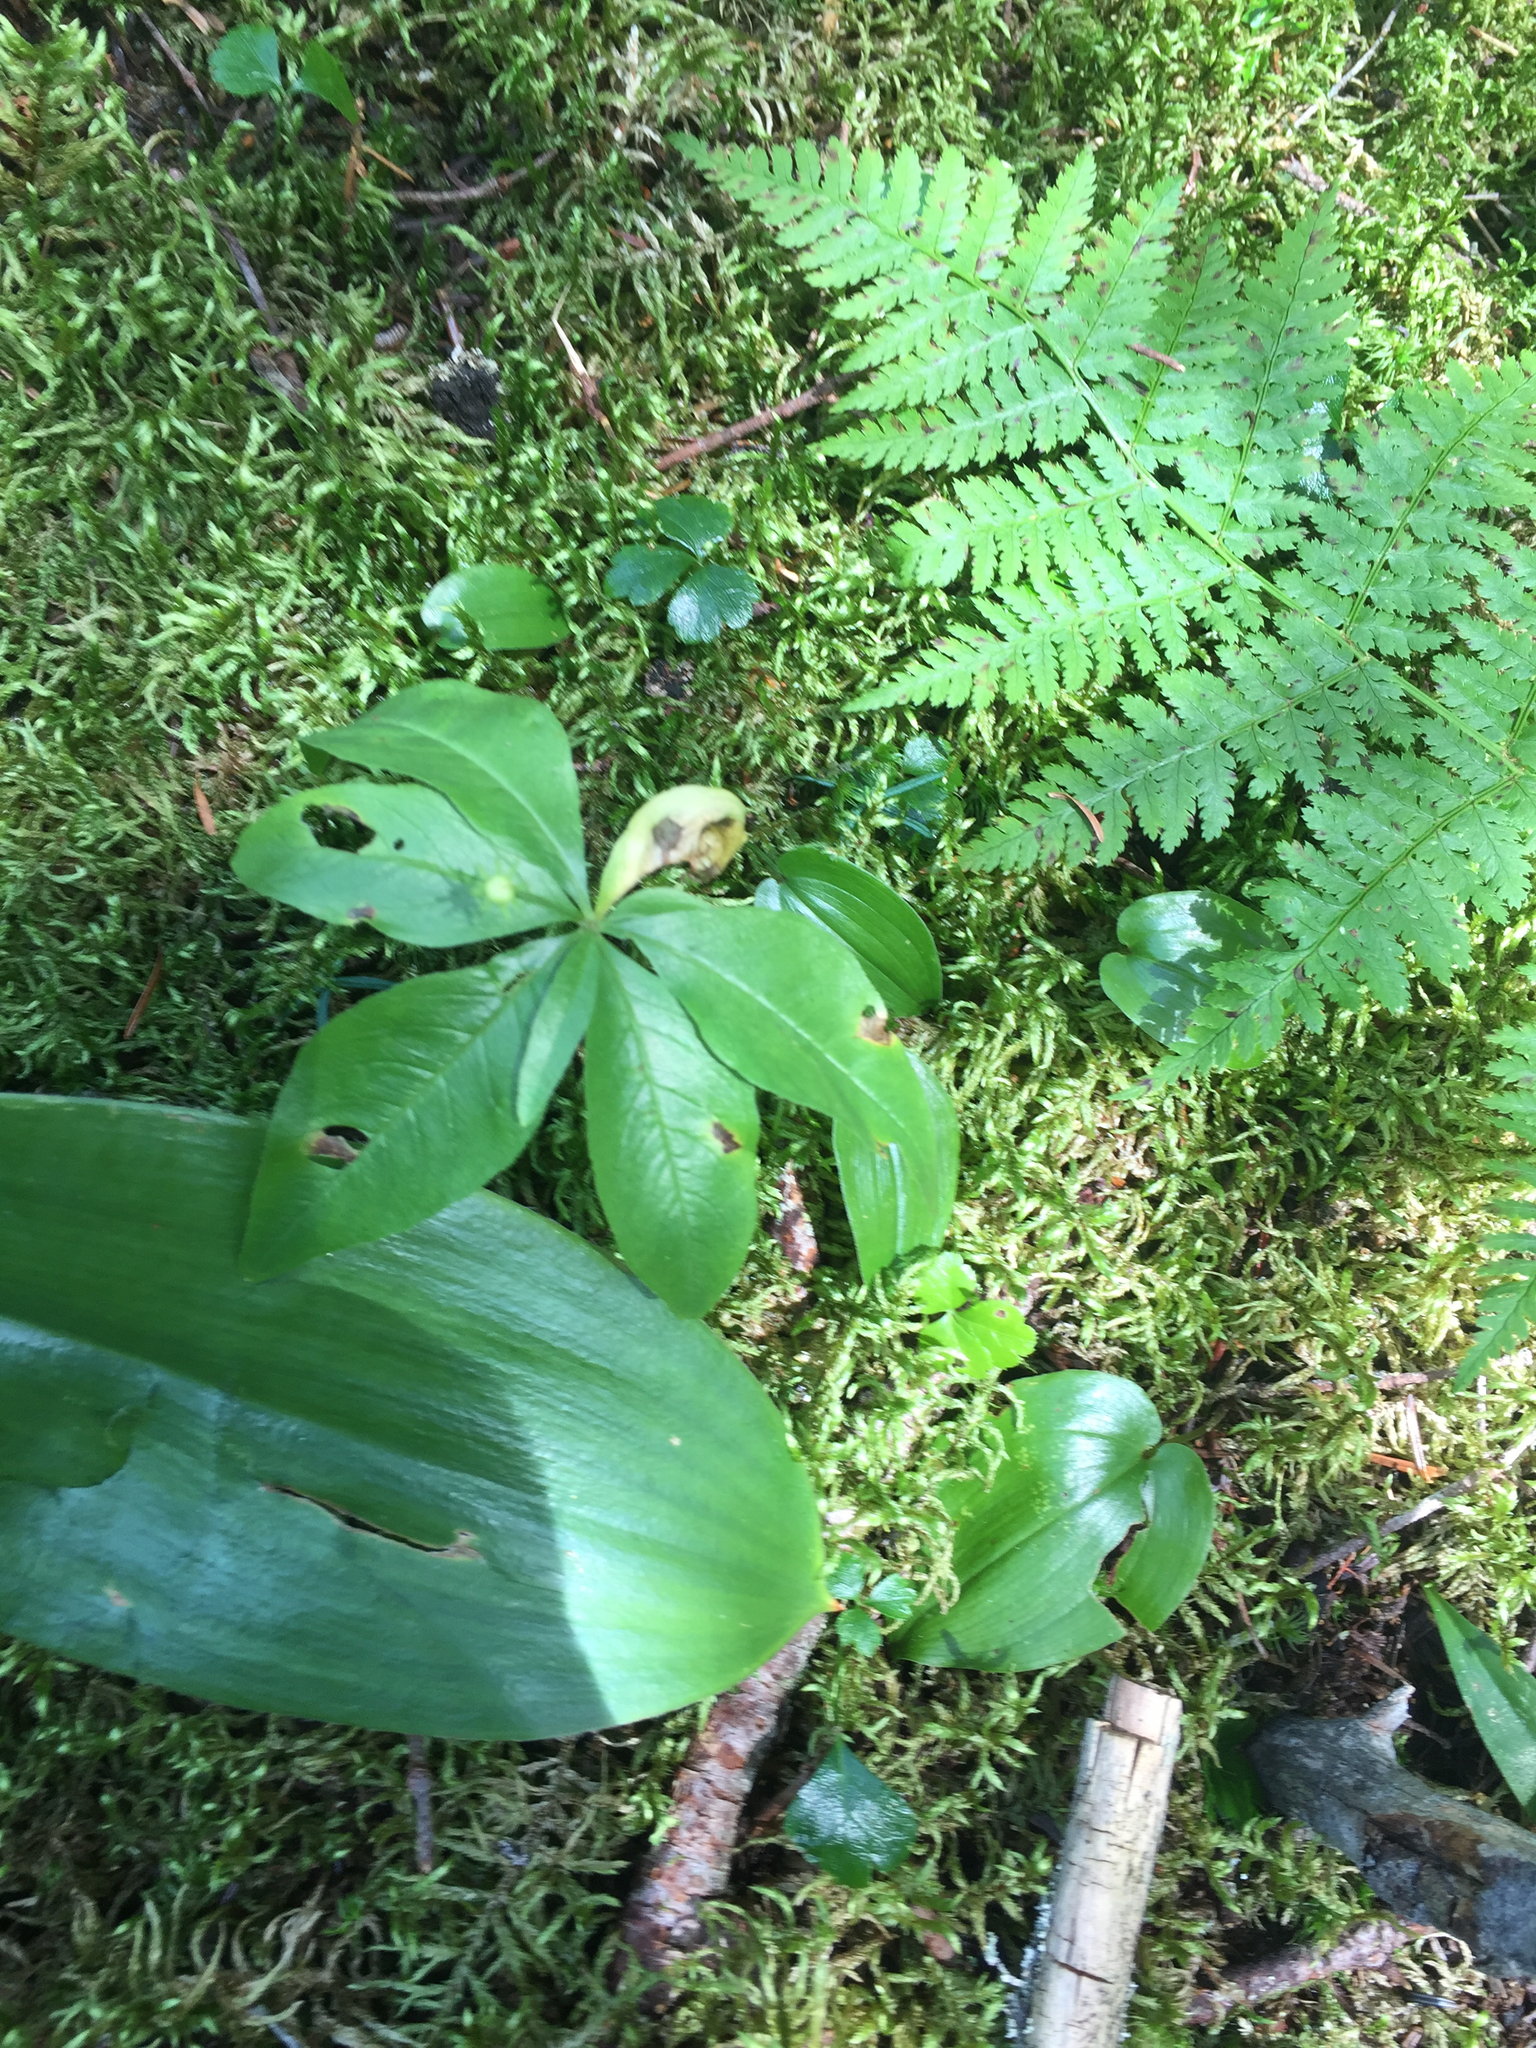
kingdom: Plantae
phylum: Tracheophyta
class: Magnoliopsida
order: Ericales
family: Primulaceae
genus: Lysimachia
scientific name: Lysimachia borealis
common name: American starflower
